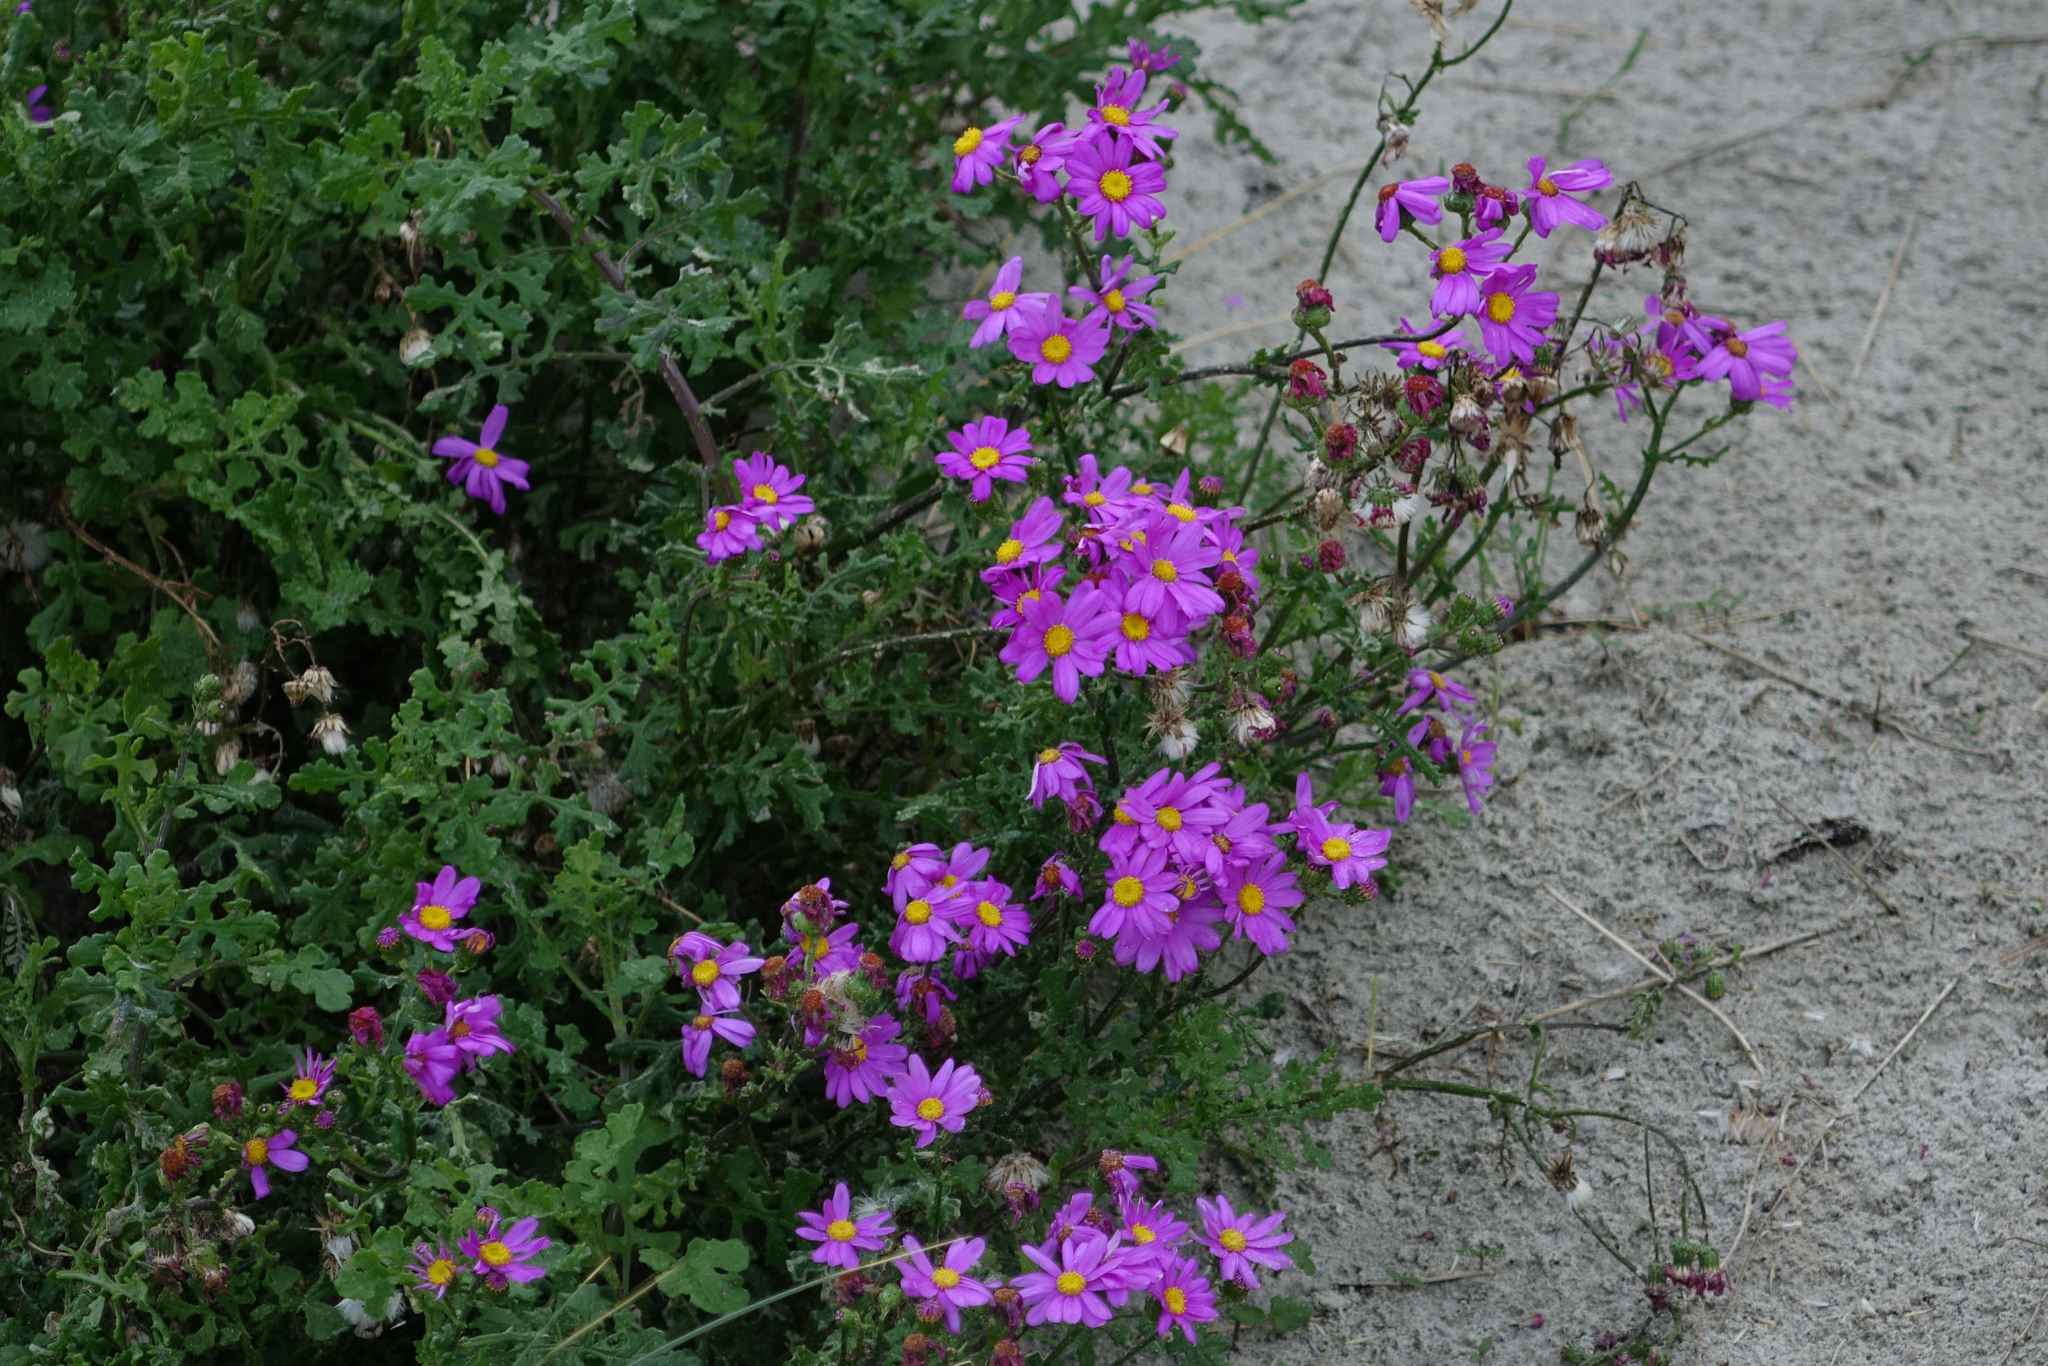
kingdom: Plantae
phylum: Tracheophyta
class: Magnoliopsida
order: Asterales
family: Asteraceae
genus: Senecio
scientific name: Senecio elegans
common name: Purple groundsel
